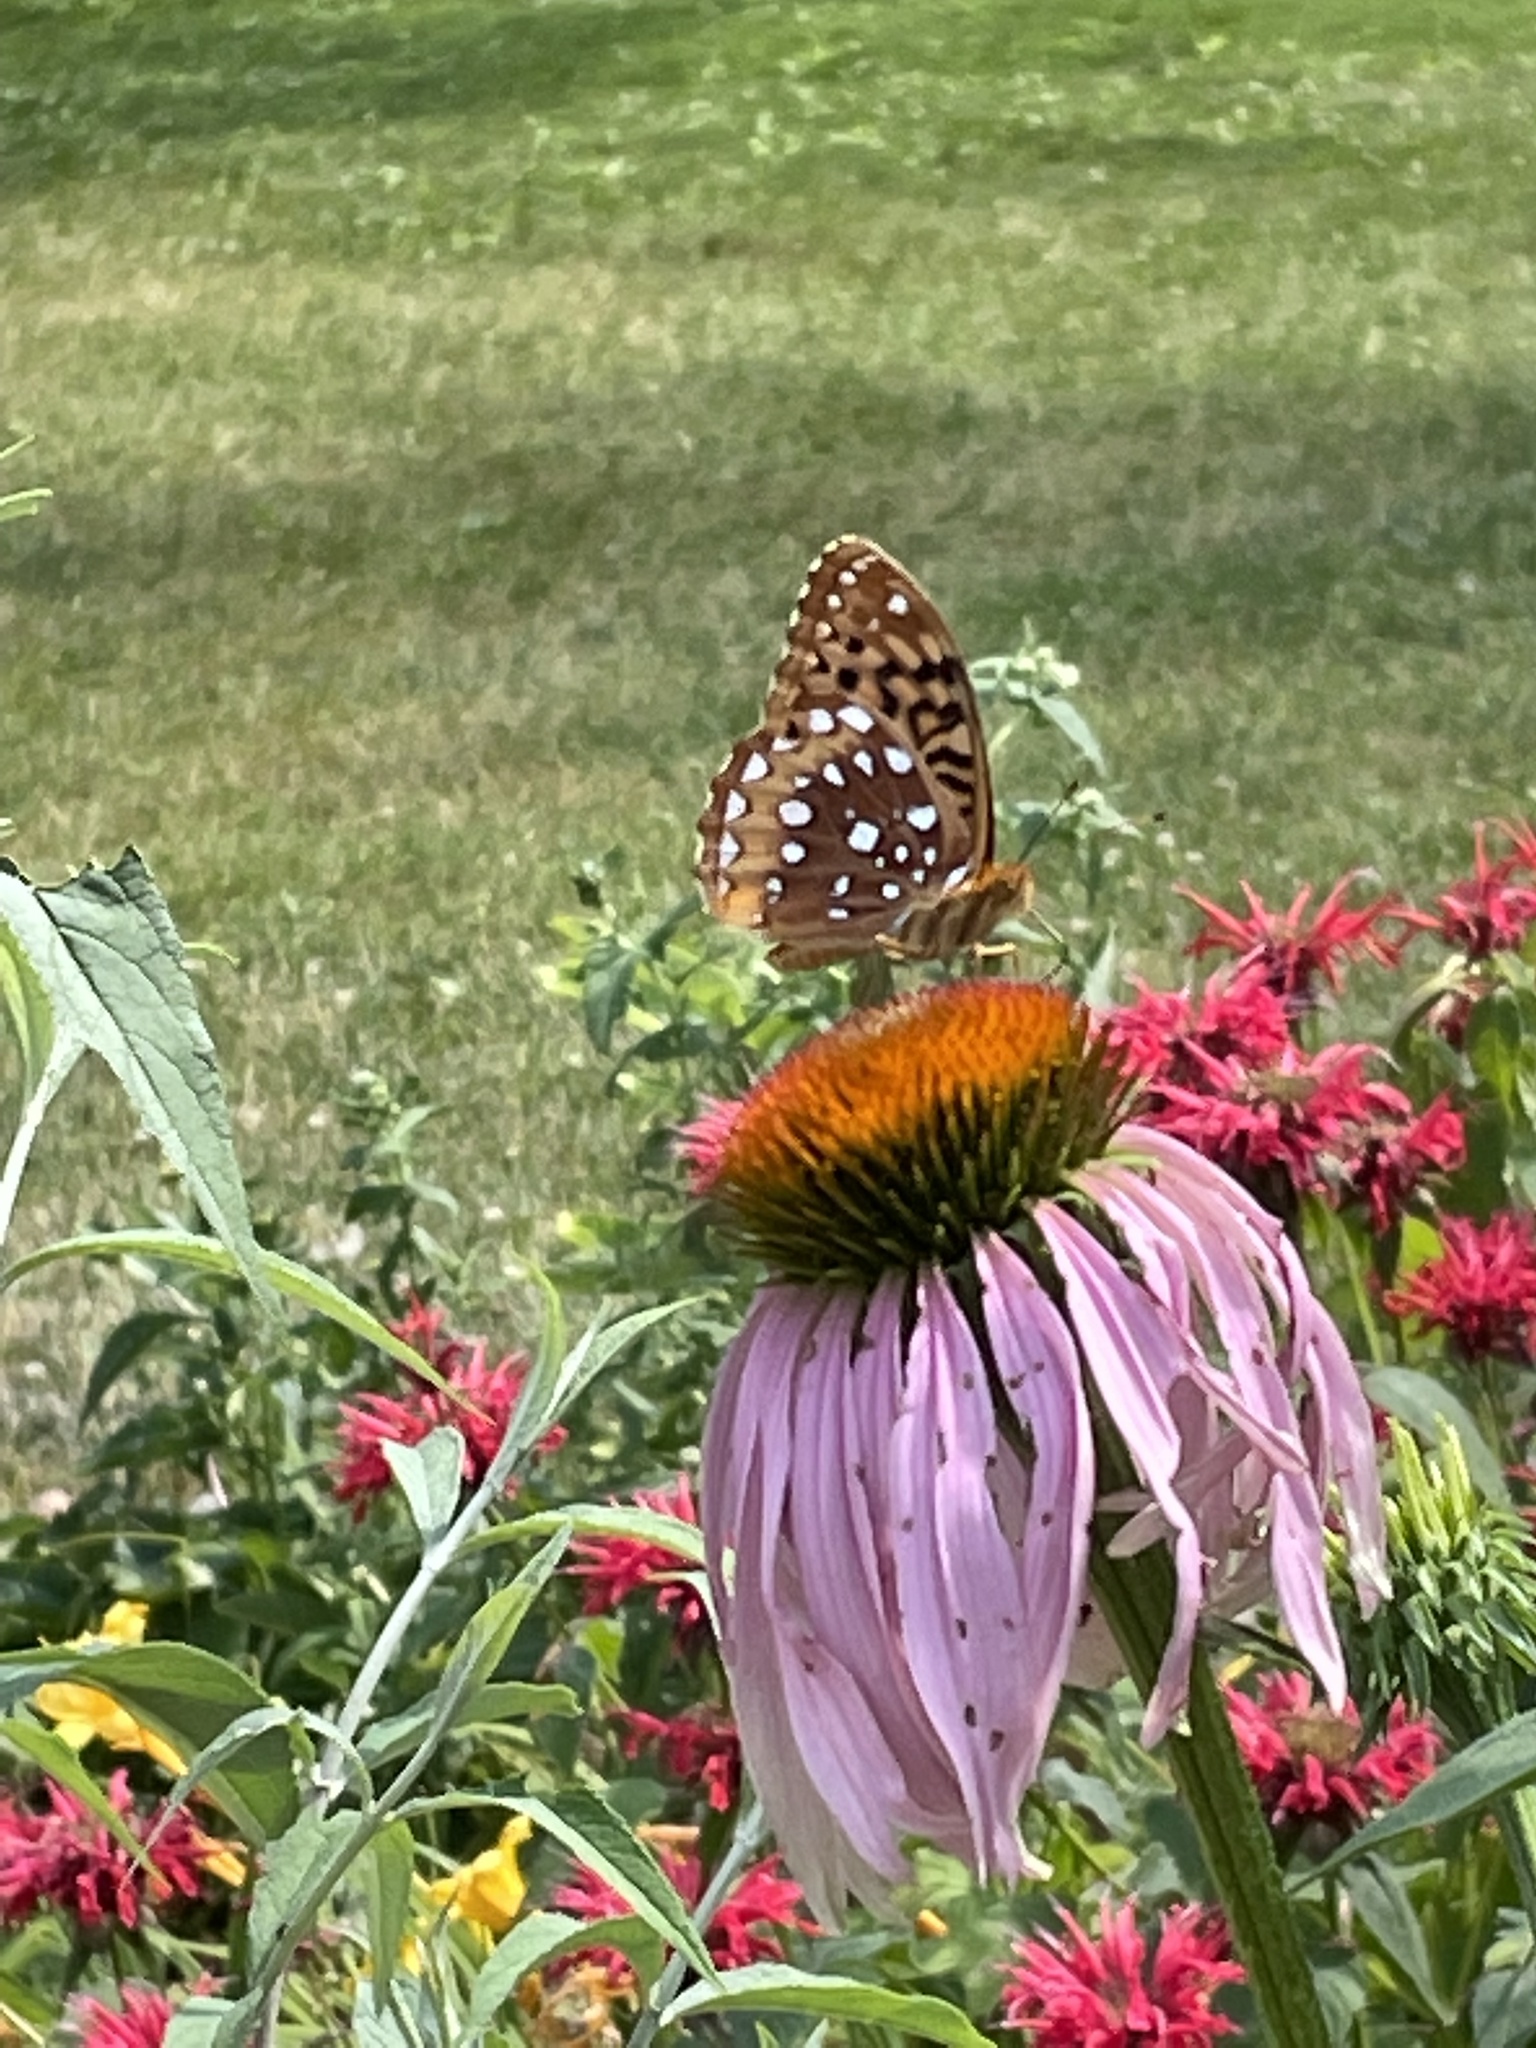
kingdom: Animalia
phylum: Arthropoda
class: Insecta
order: Lepidoptera
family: Nymphalidae
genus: Speyeria
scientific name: Speyeria cybele
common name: Great spangled fritillary
